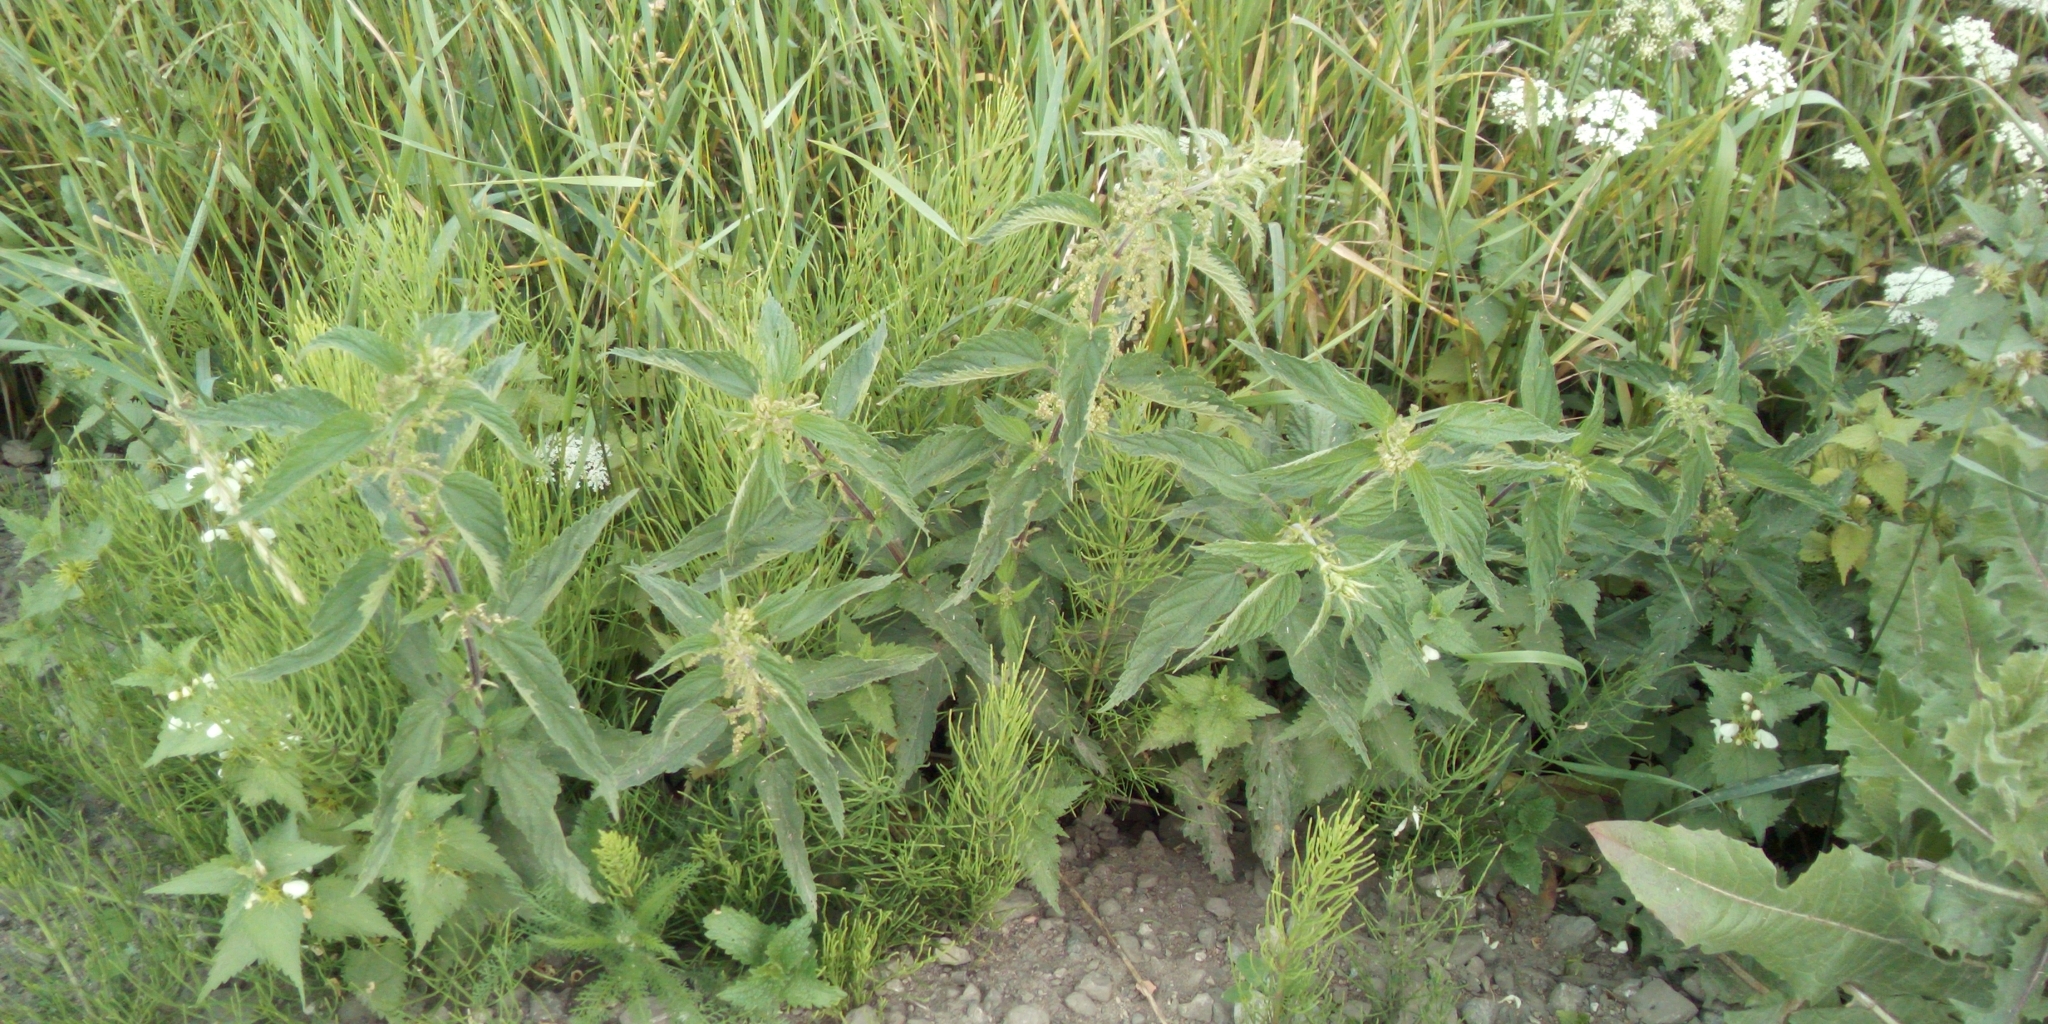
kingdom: Plantae
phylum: Tracheophyta
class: Magnoliopsida
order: Rosales
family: Urticaceae
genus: Urtica
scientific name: Urtica dioica
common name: Common nettle
